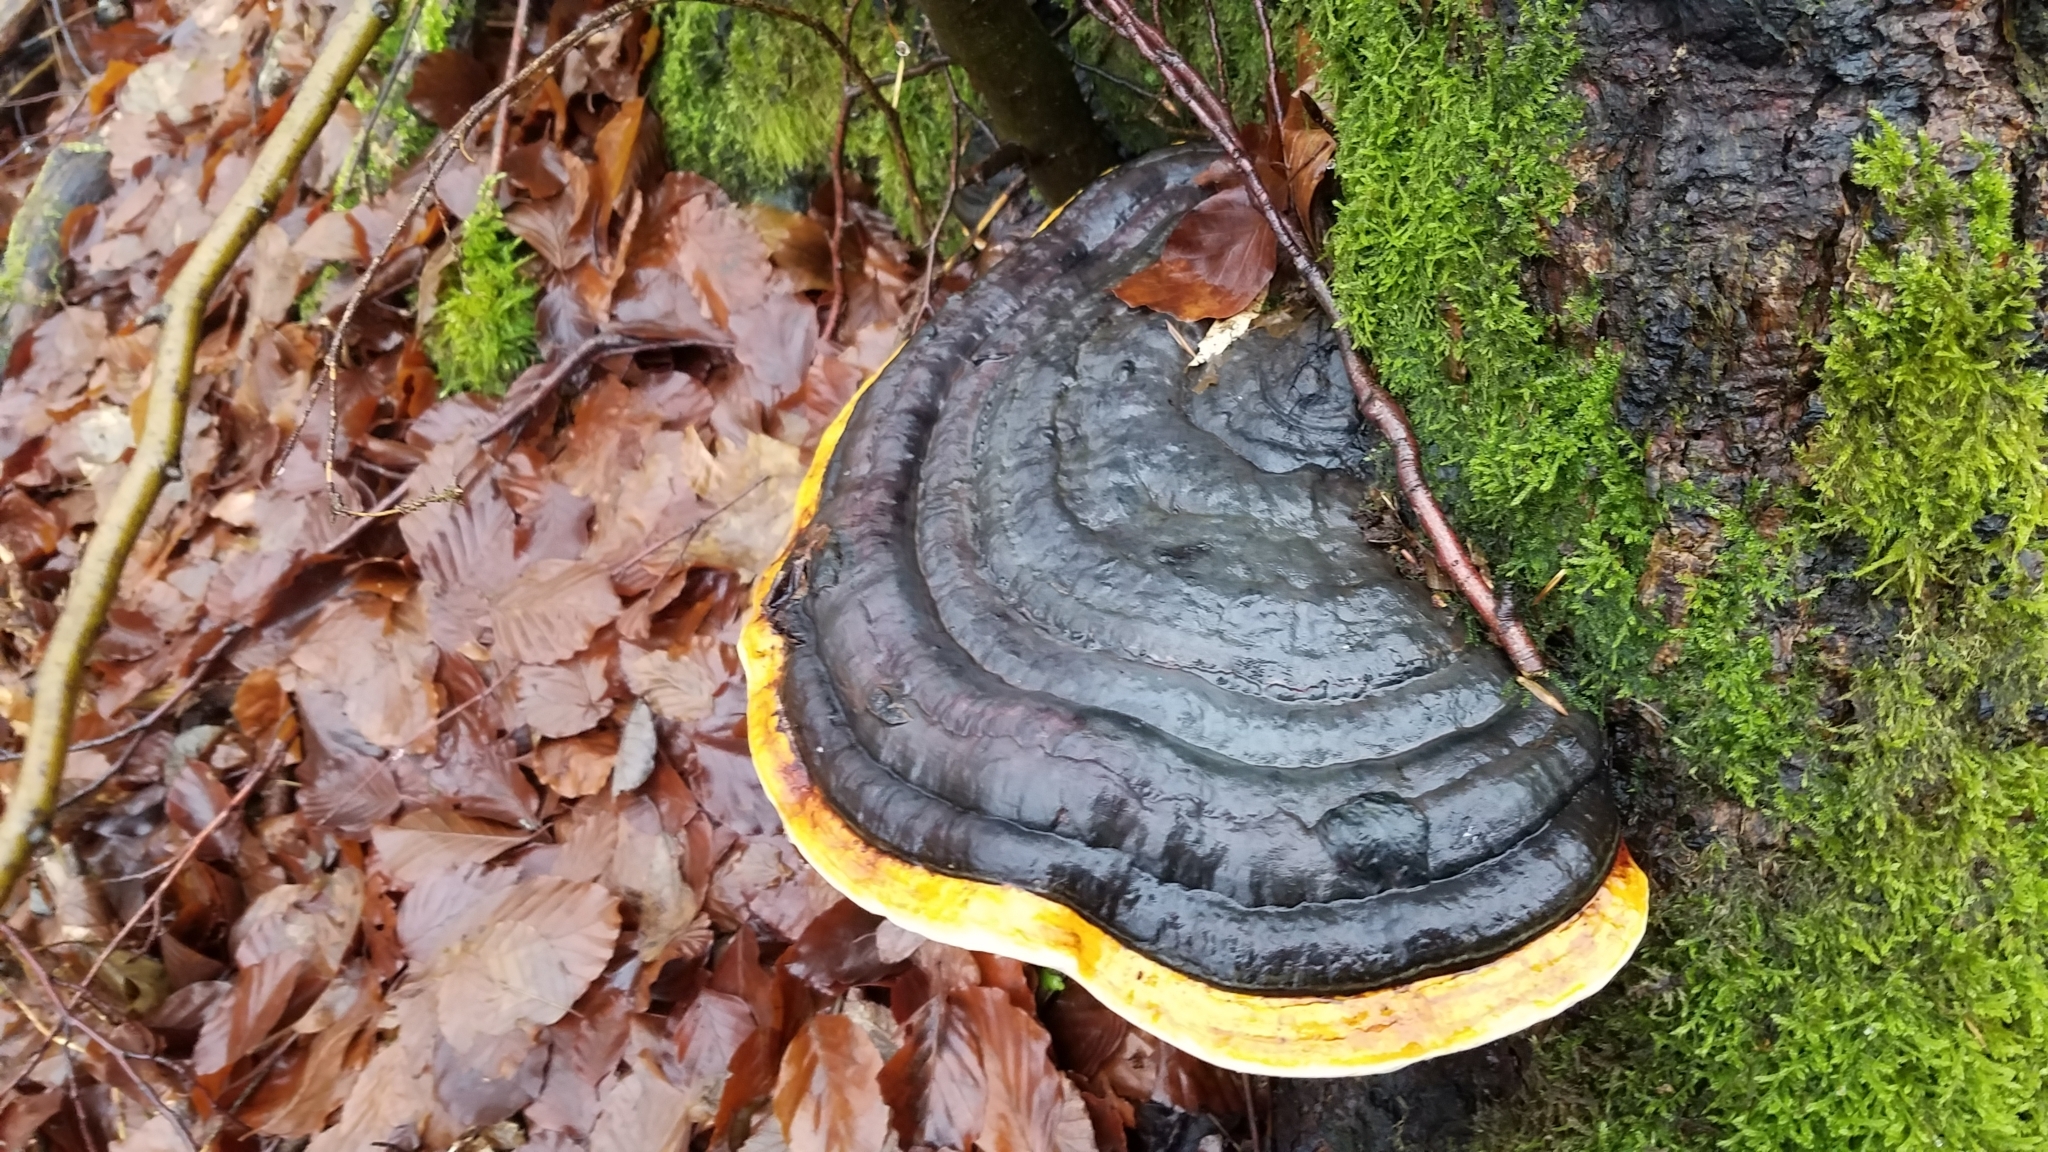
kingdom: Fungi
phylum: Basidiomycota
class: Agaricomycetes
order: Polyporales
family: Fomitopsidaceae
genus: Fomitopsis
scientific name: Fomitopsis pinicola
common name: Red-belted bracket
